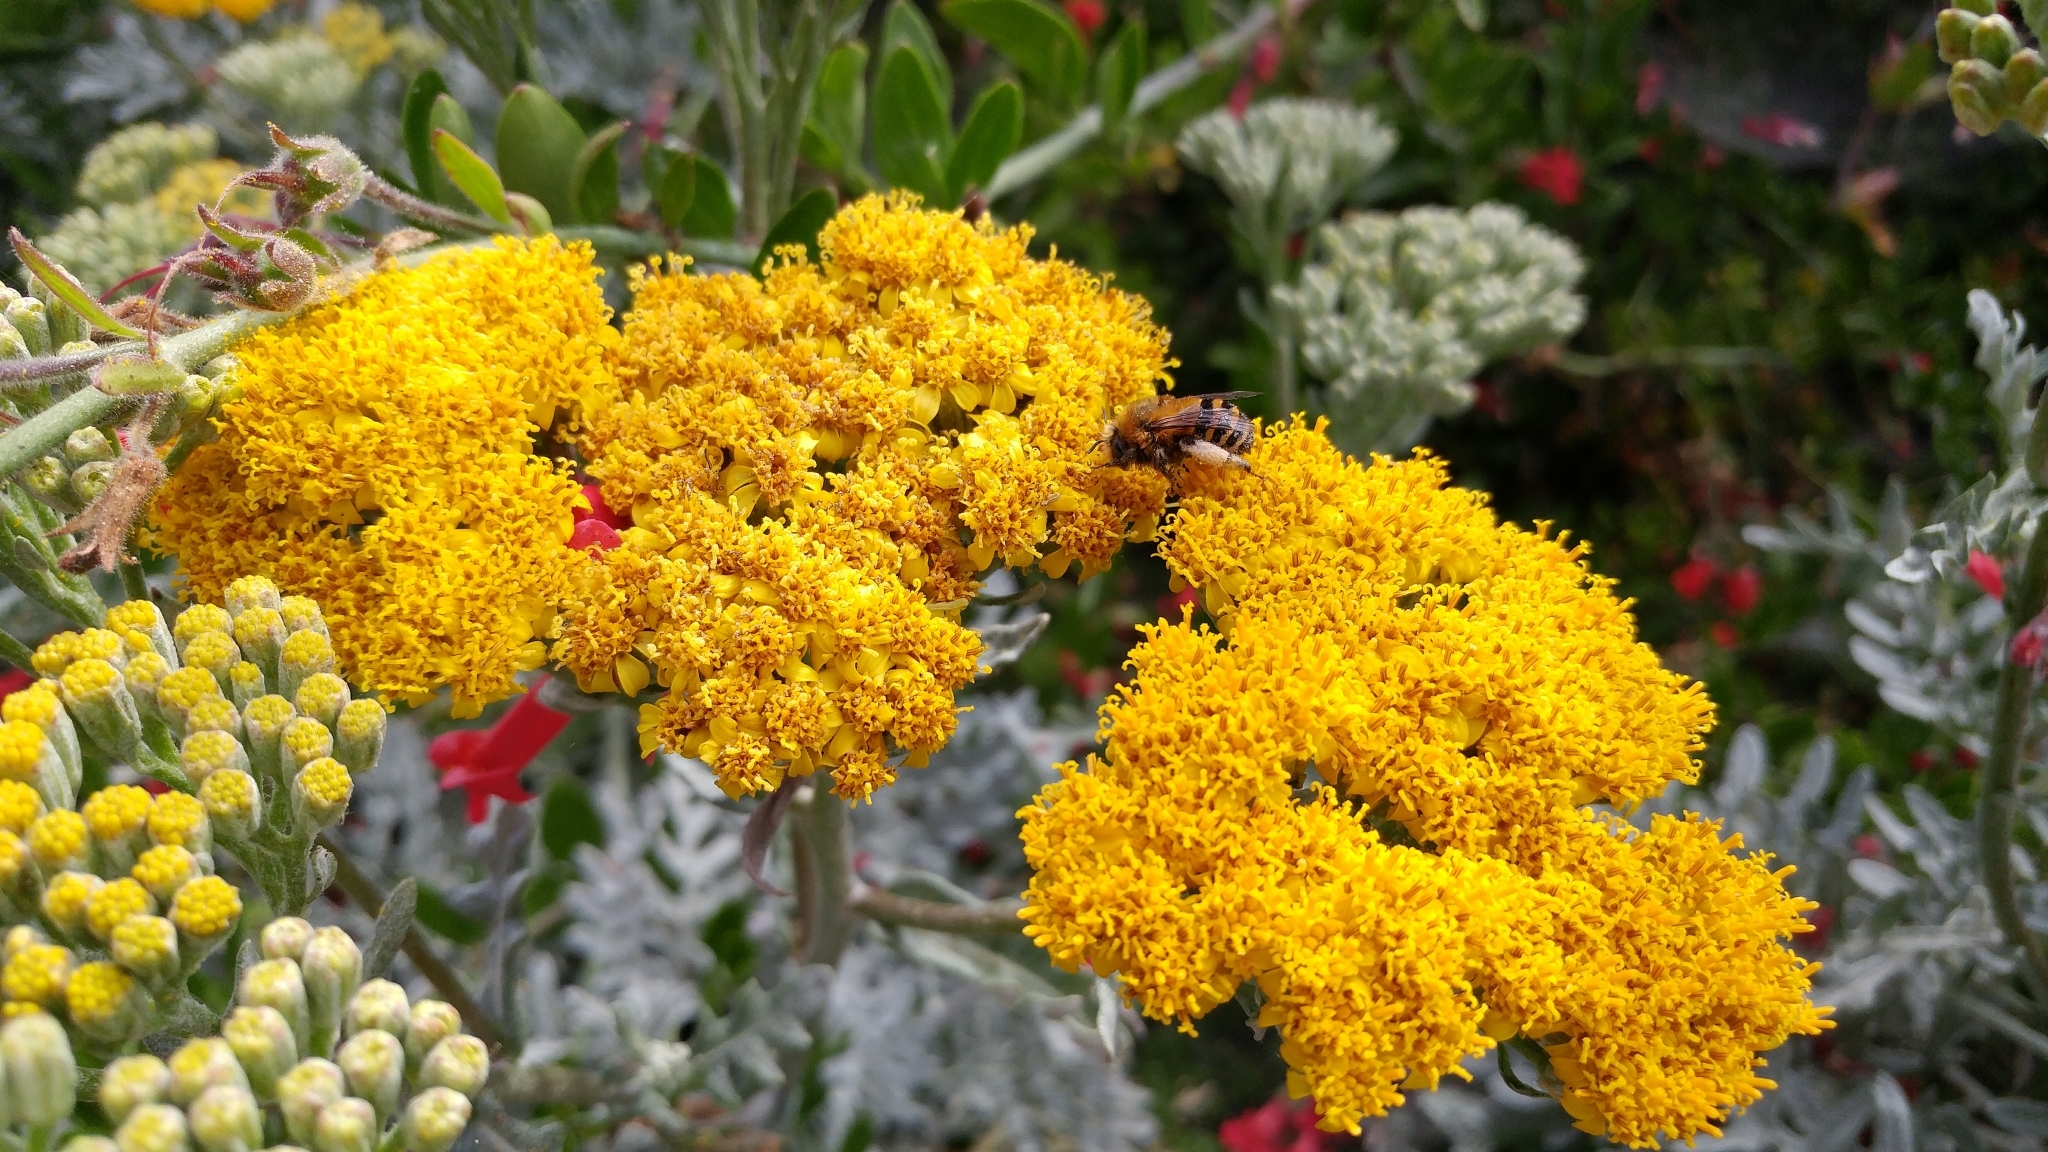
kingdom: Plantae
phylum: Tracheophyta
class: Magnoliopsida
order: Asterales
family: Asteraceae
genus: Constancea
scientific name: Constancea nevinii
